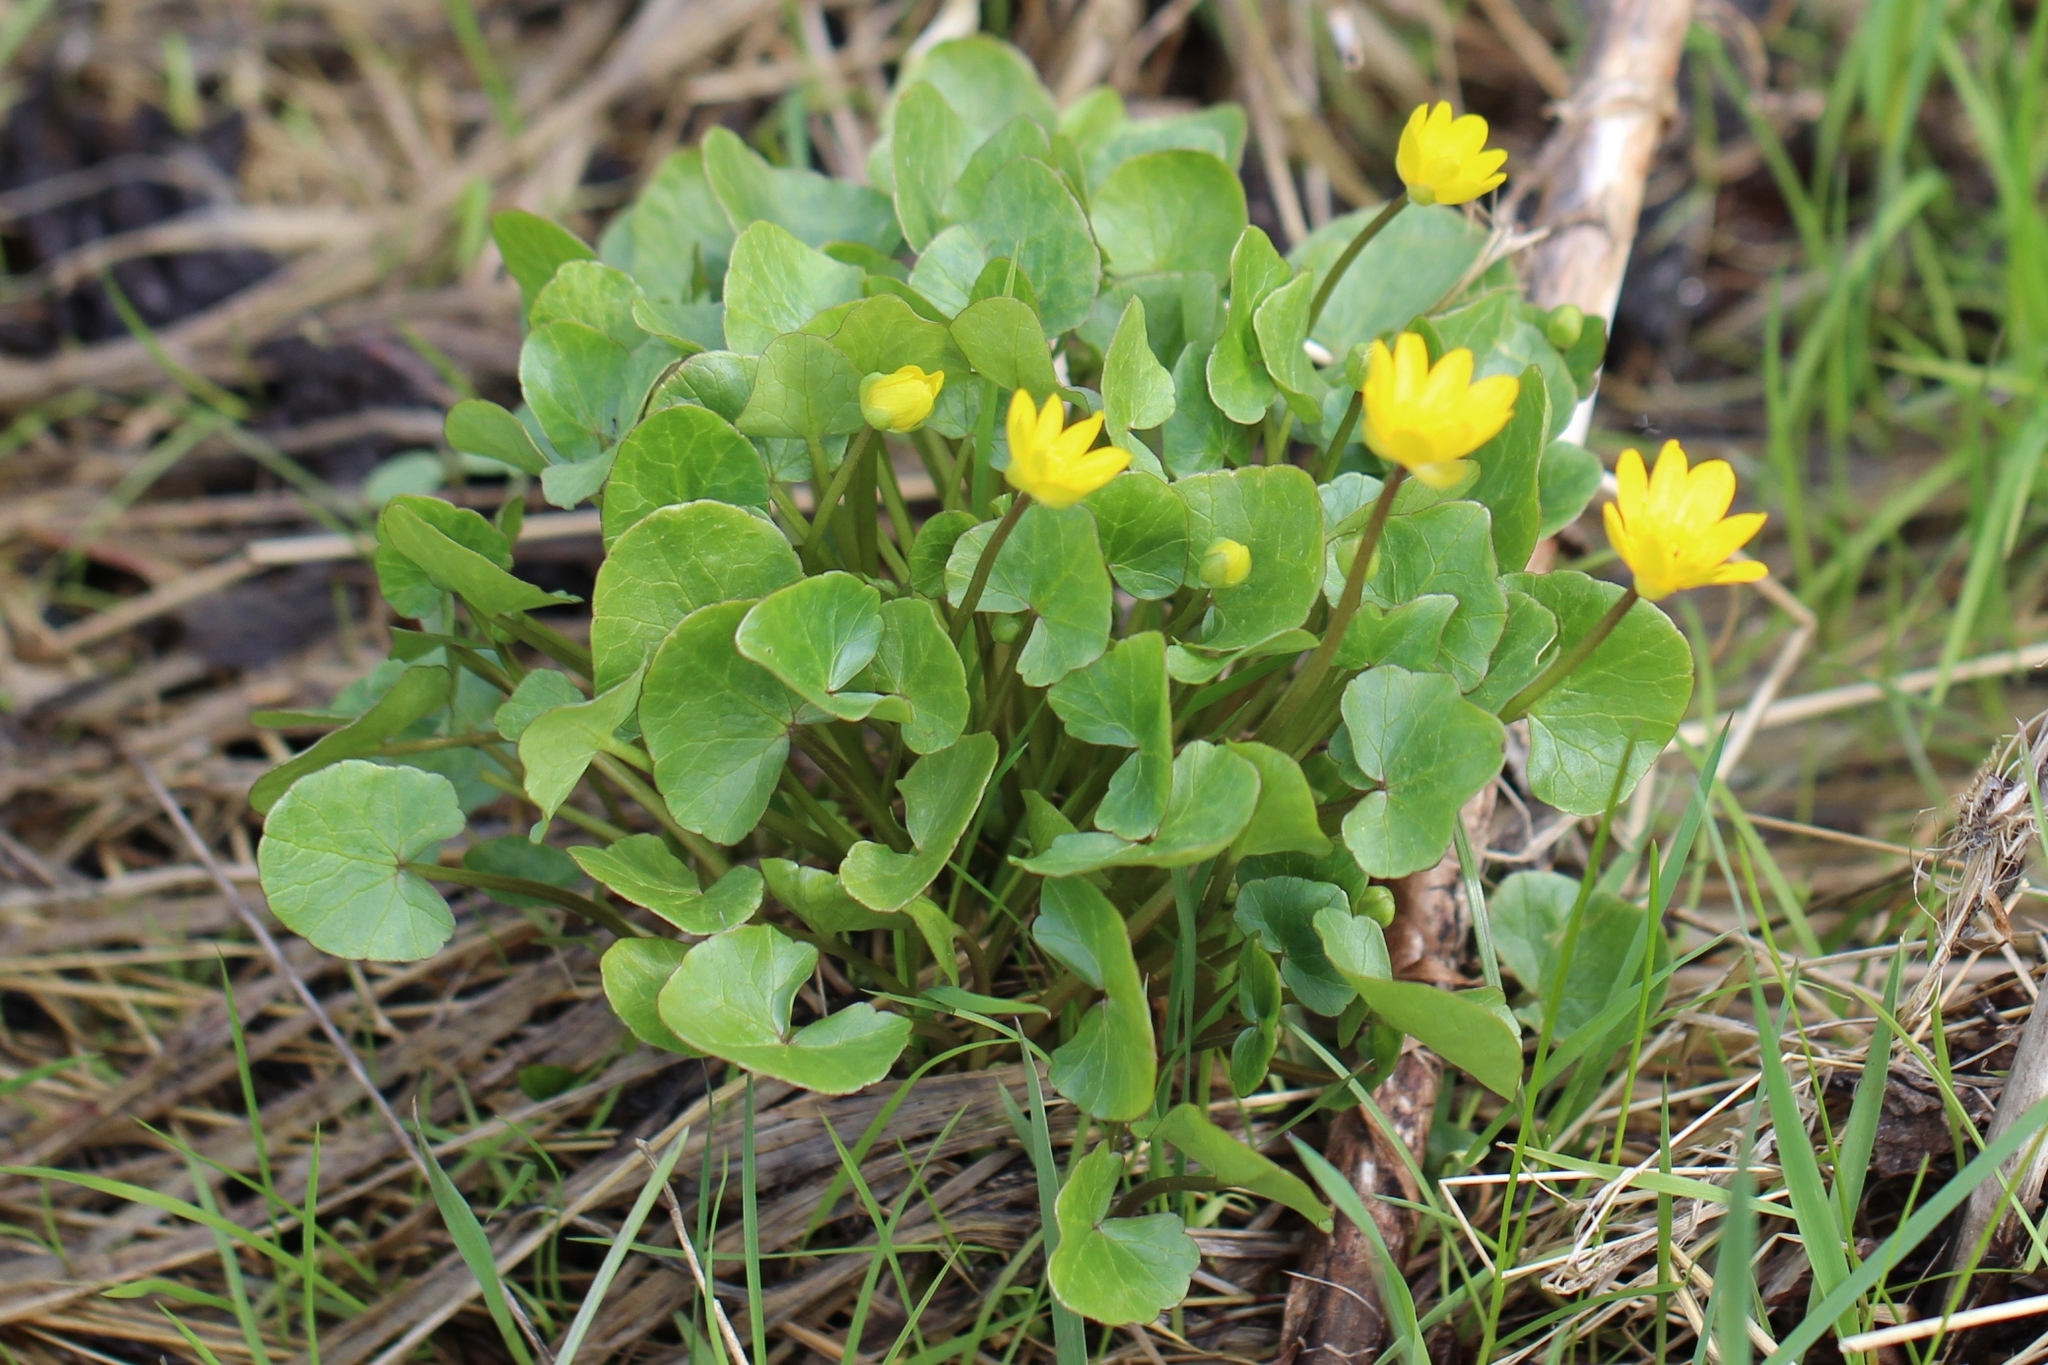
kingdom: Plantae
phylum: Tracheophyta
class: Magnoliopsida
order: Ranunculales
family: Ranunculaceae
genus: Ficaria
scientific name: Ficaria verna
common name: Lesser celandine
